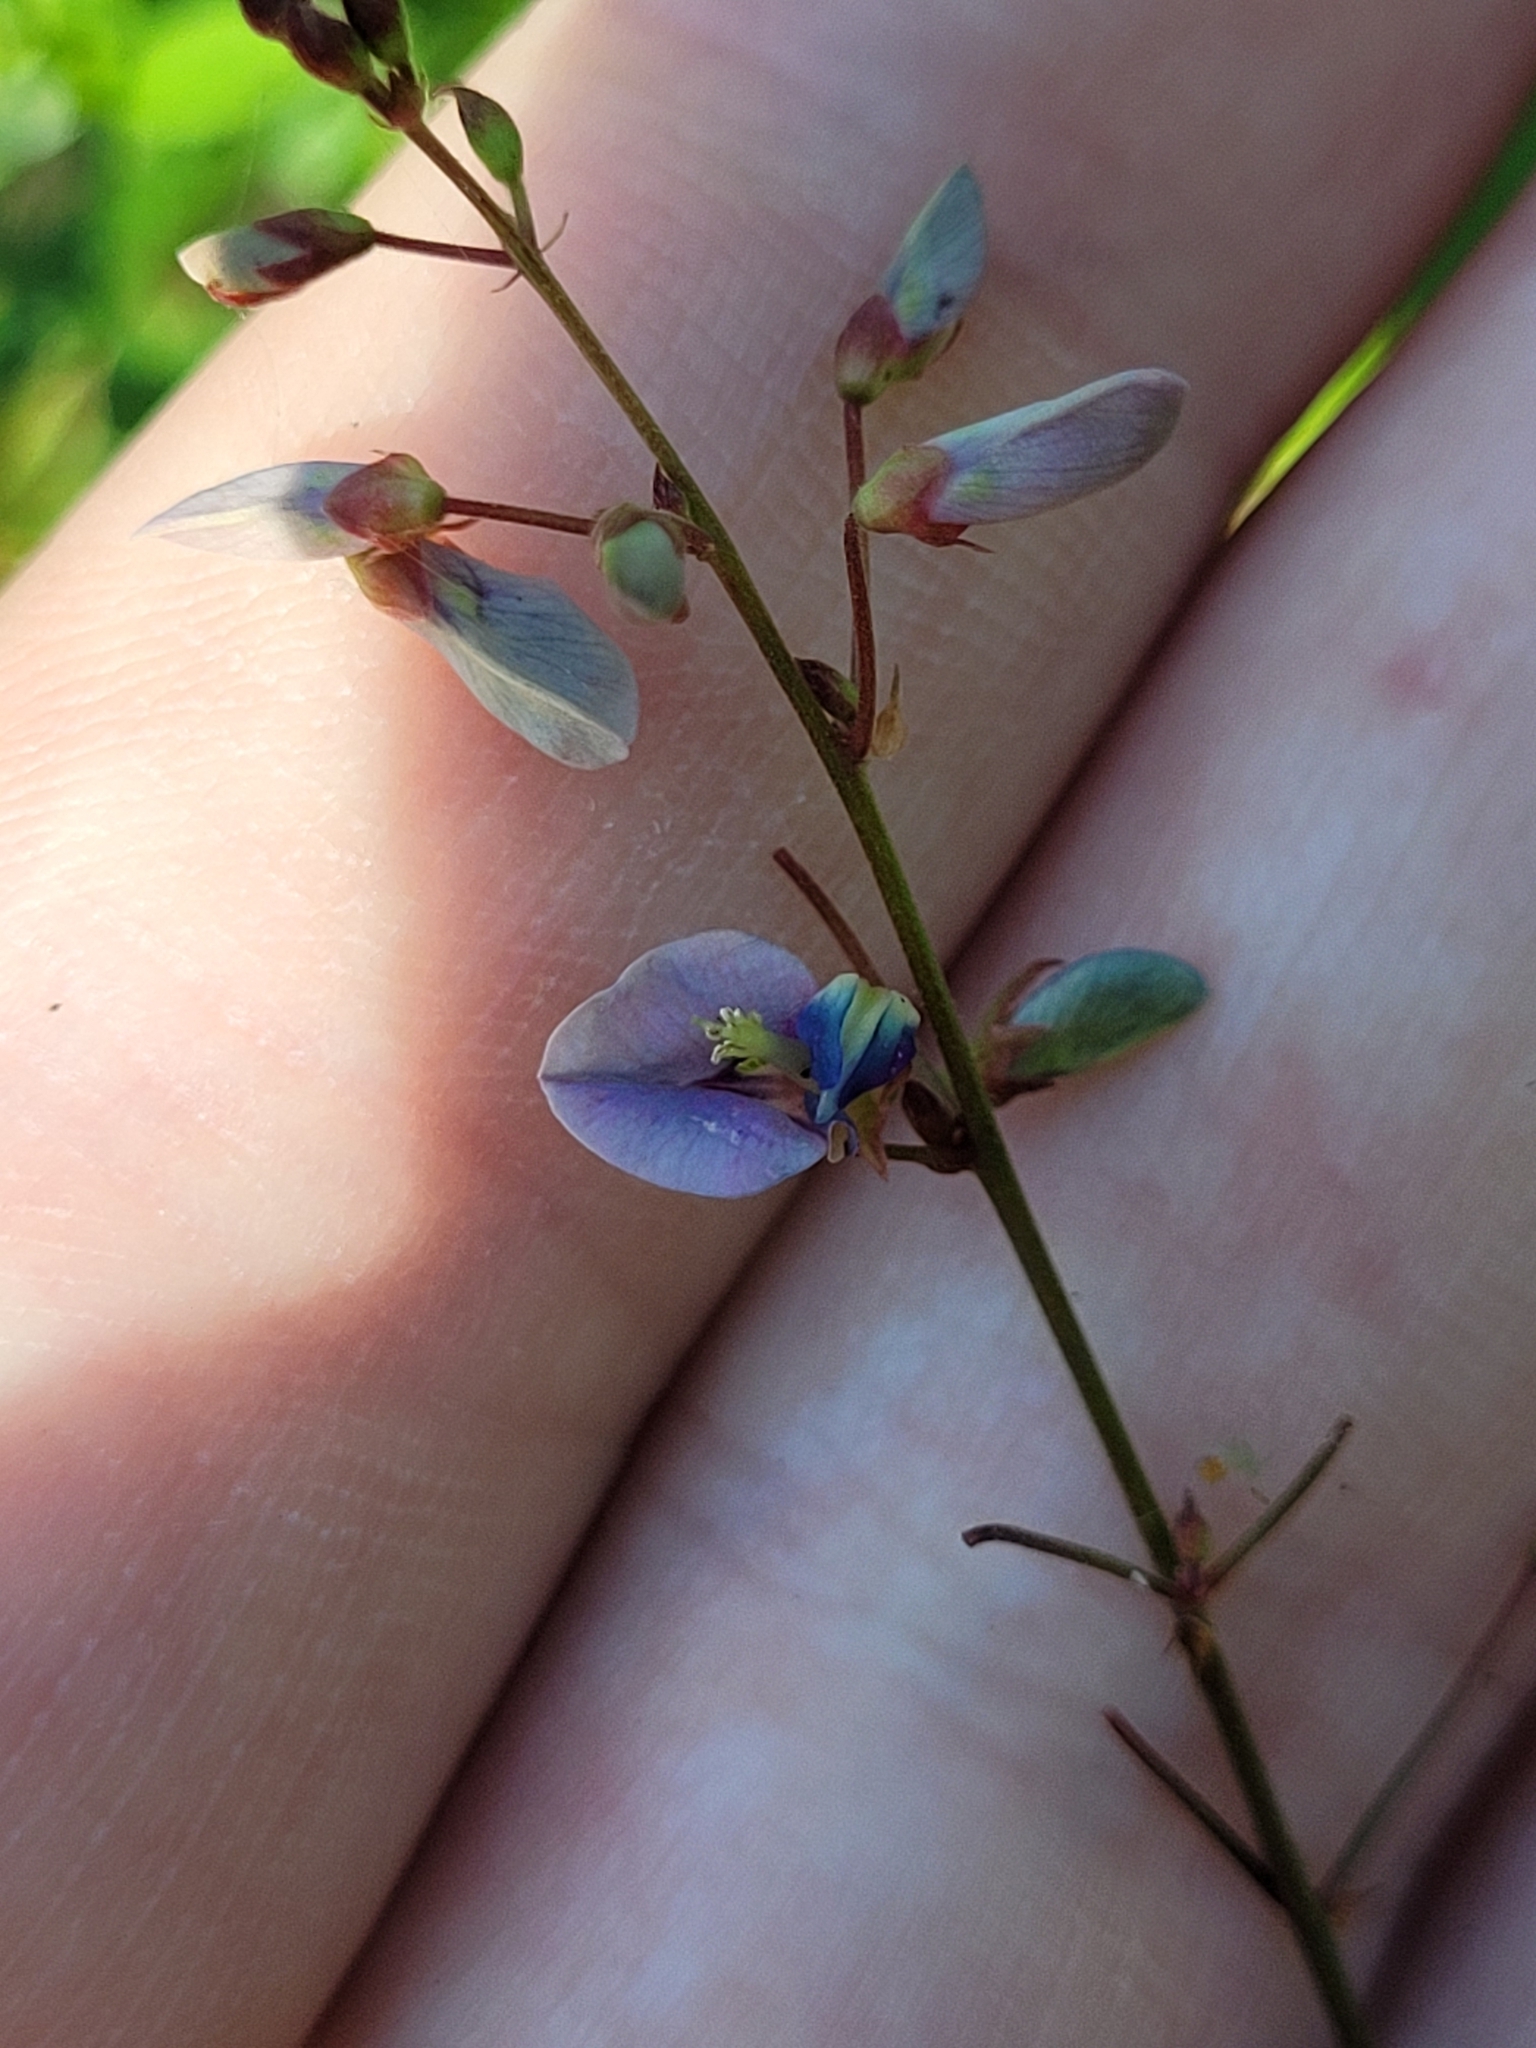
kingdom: Plantae
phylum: Tracheophyta
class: Magnoliopsida
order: Fabales
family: Fabaceae
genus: Desmodium
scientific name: Desmodium paniculatum
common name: Panicled tick-clover
